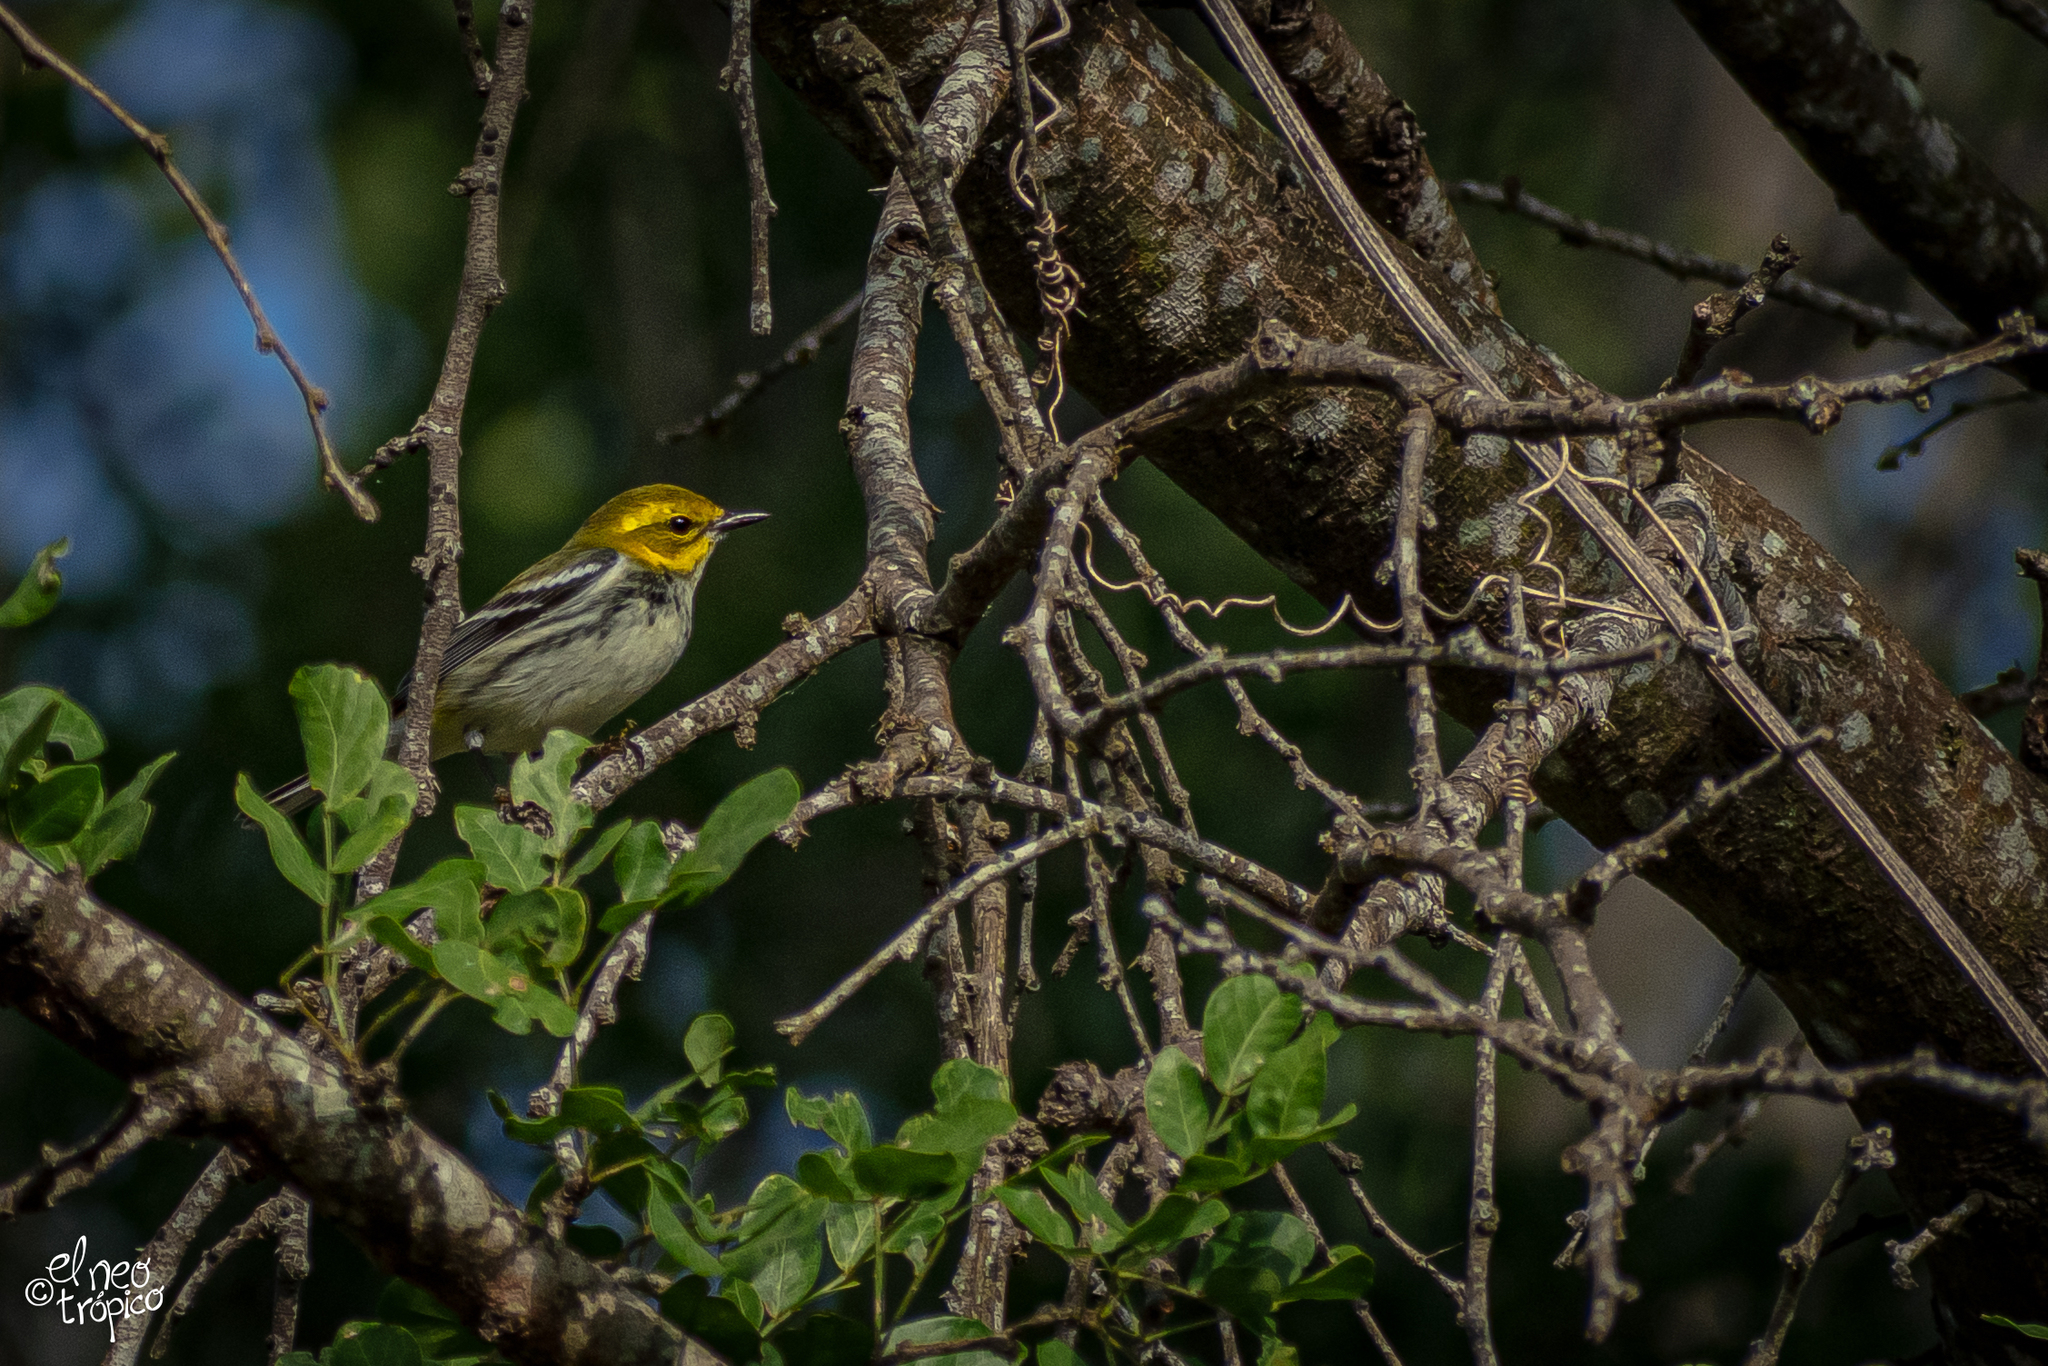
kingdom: Animalia
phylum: Chordata
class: Aves
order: Passeriformes
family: Parulidae
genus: Setophaga
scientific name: Setophaga virens
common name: Black-throated green warbler
